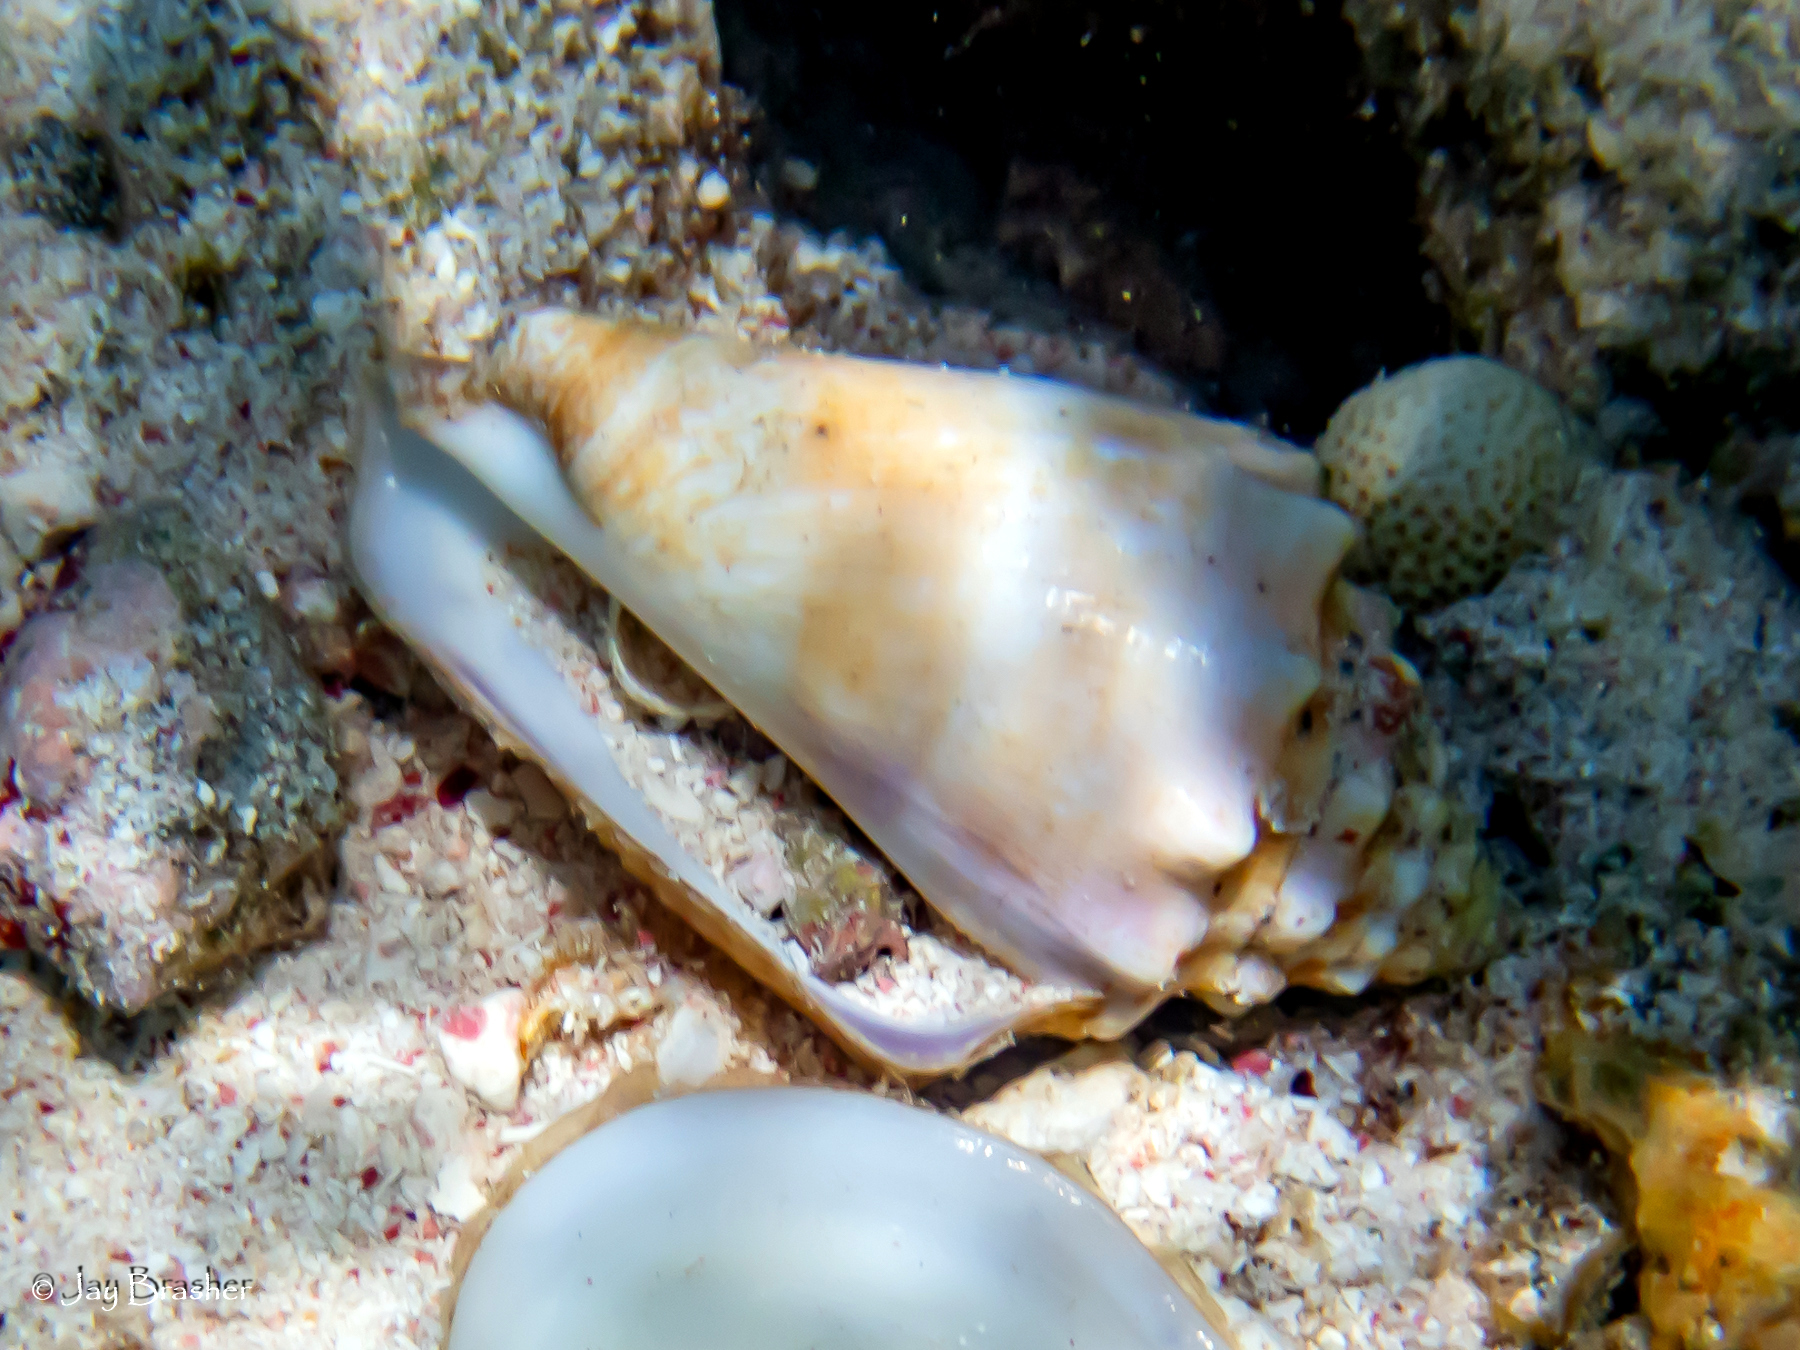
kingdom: Animalia
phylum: Mollusca
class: Gastropoda
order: Littorinimorpha
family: Strombidae
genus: Aliger
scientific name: Aliger gigas
